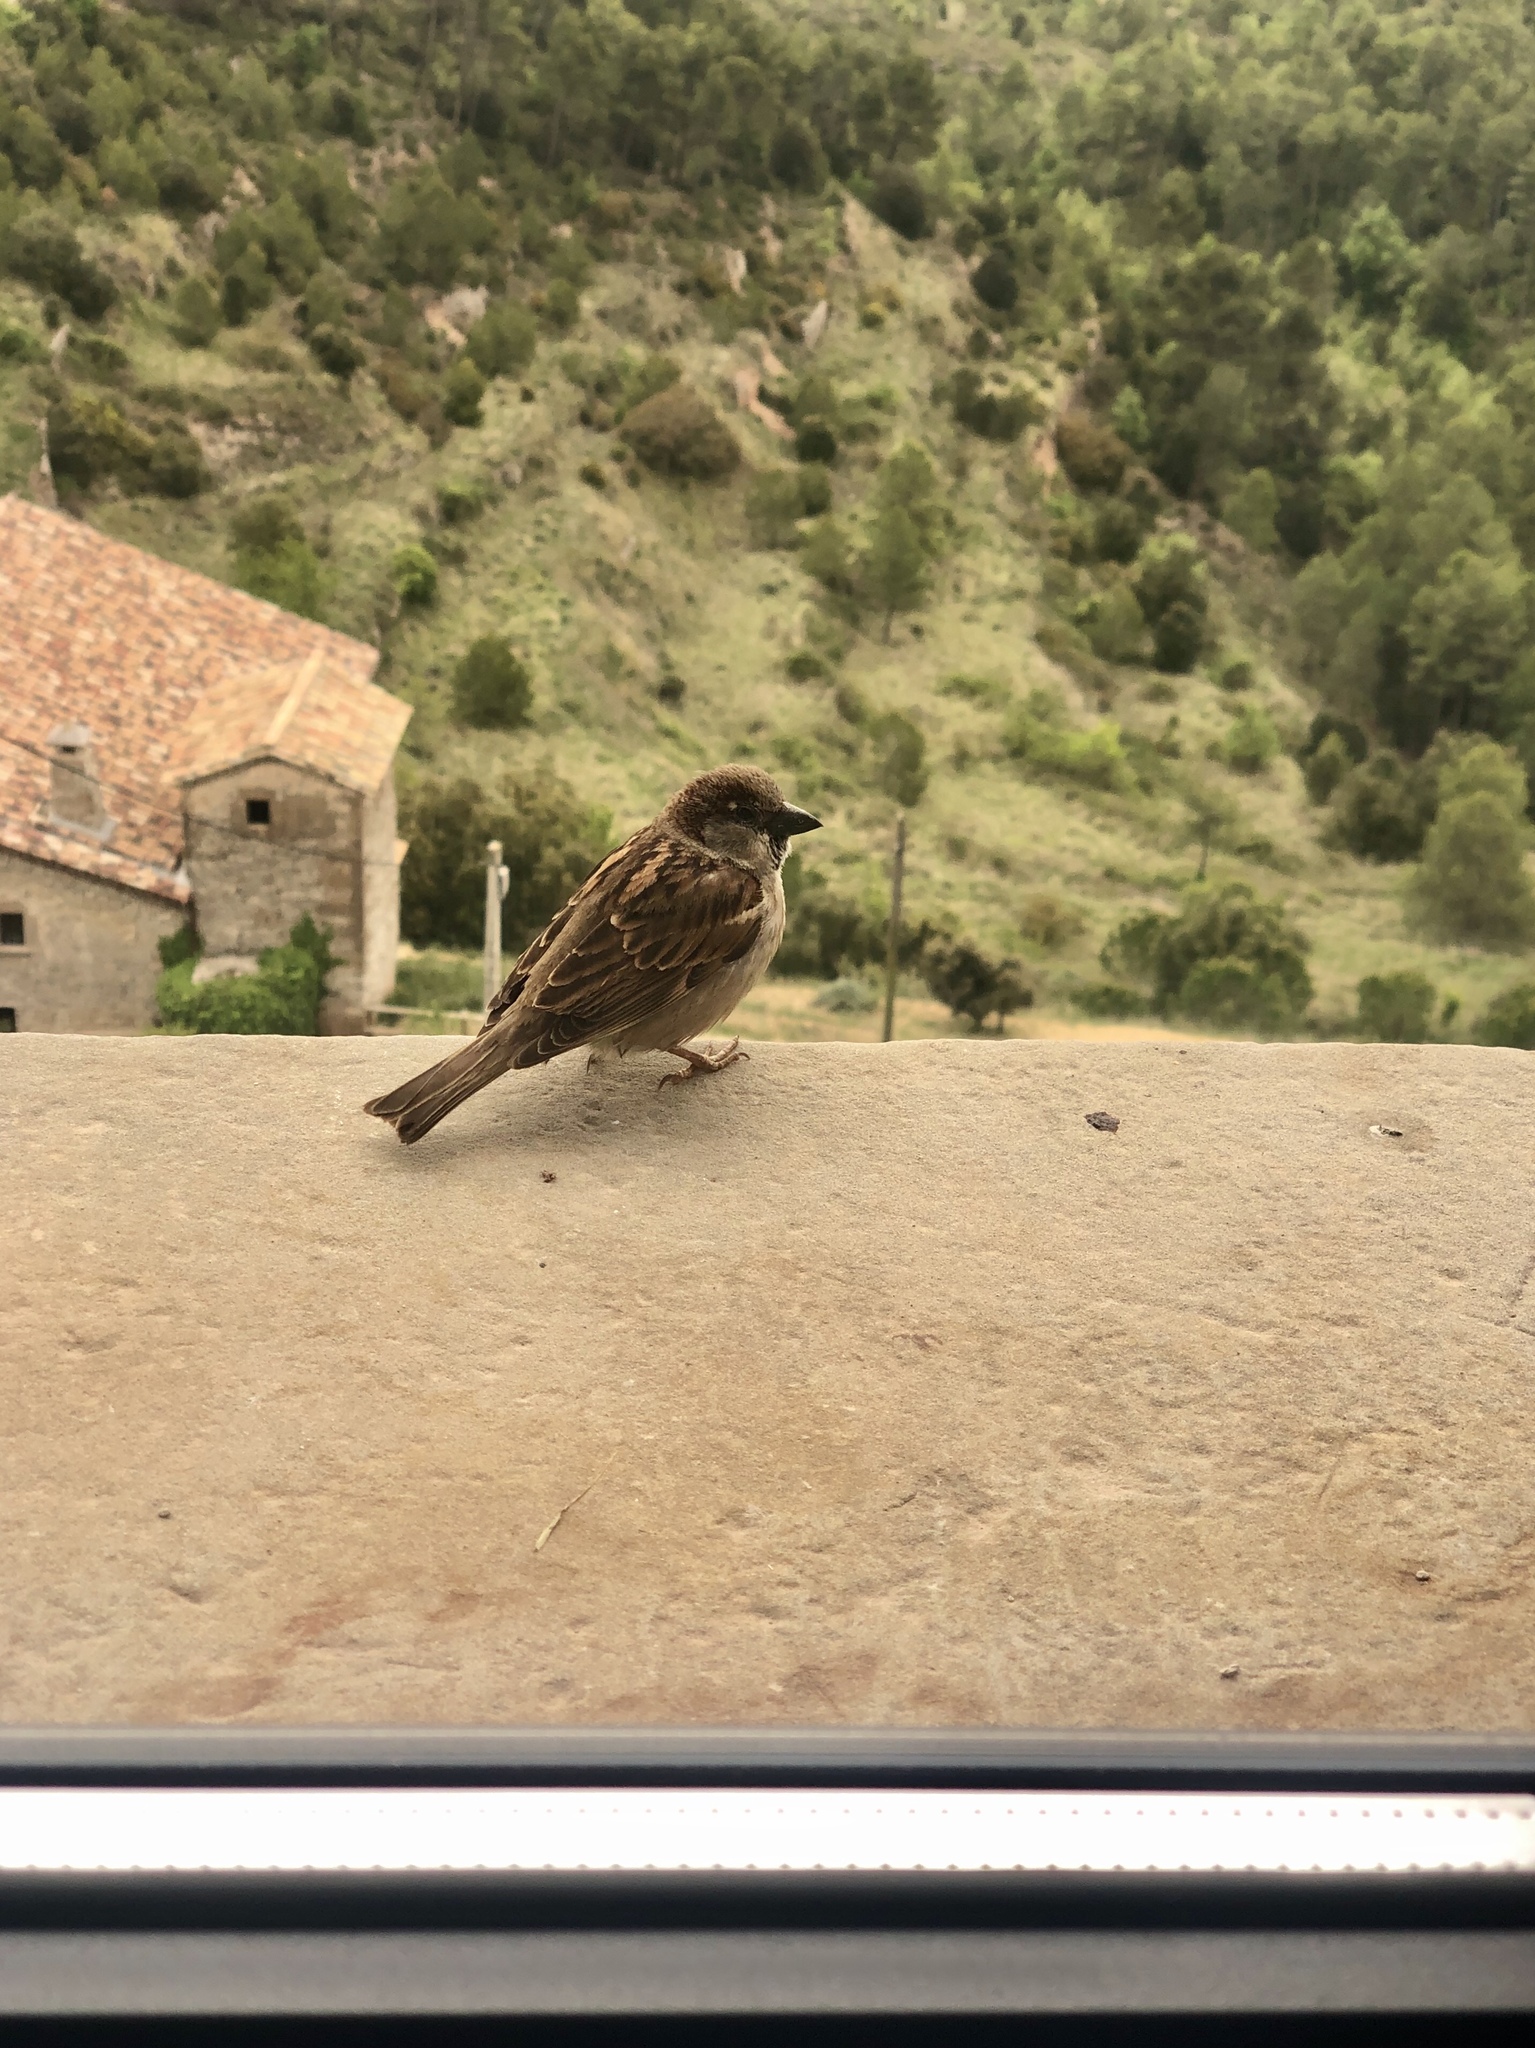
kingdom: Animalia
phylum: Chordata
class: Aves
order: Passeriformes
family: Passeridae
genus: Passer
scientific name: Passer domesticus
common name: House sparrow
